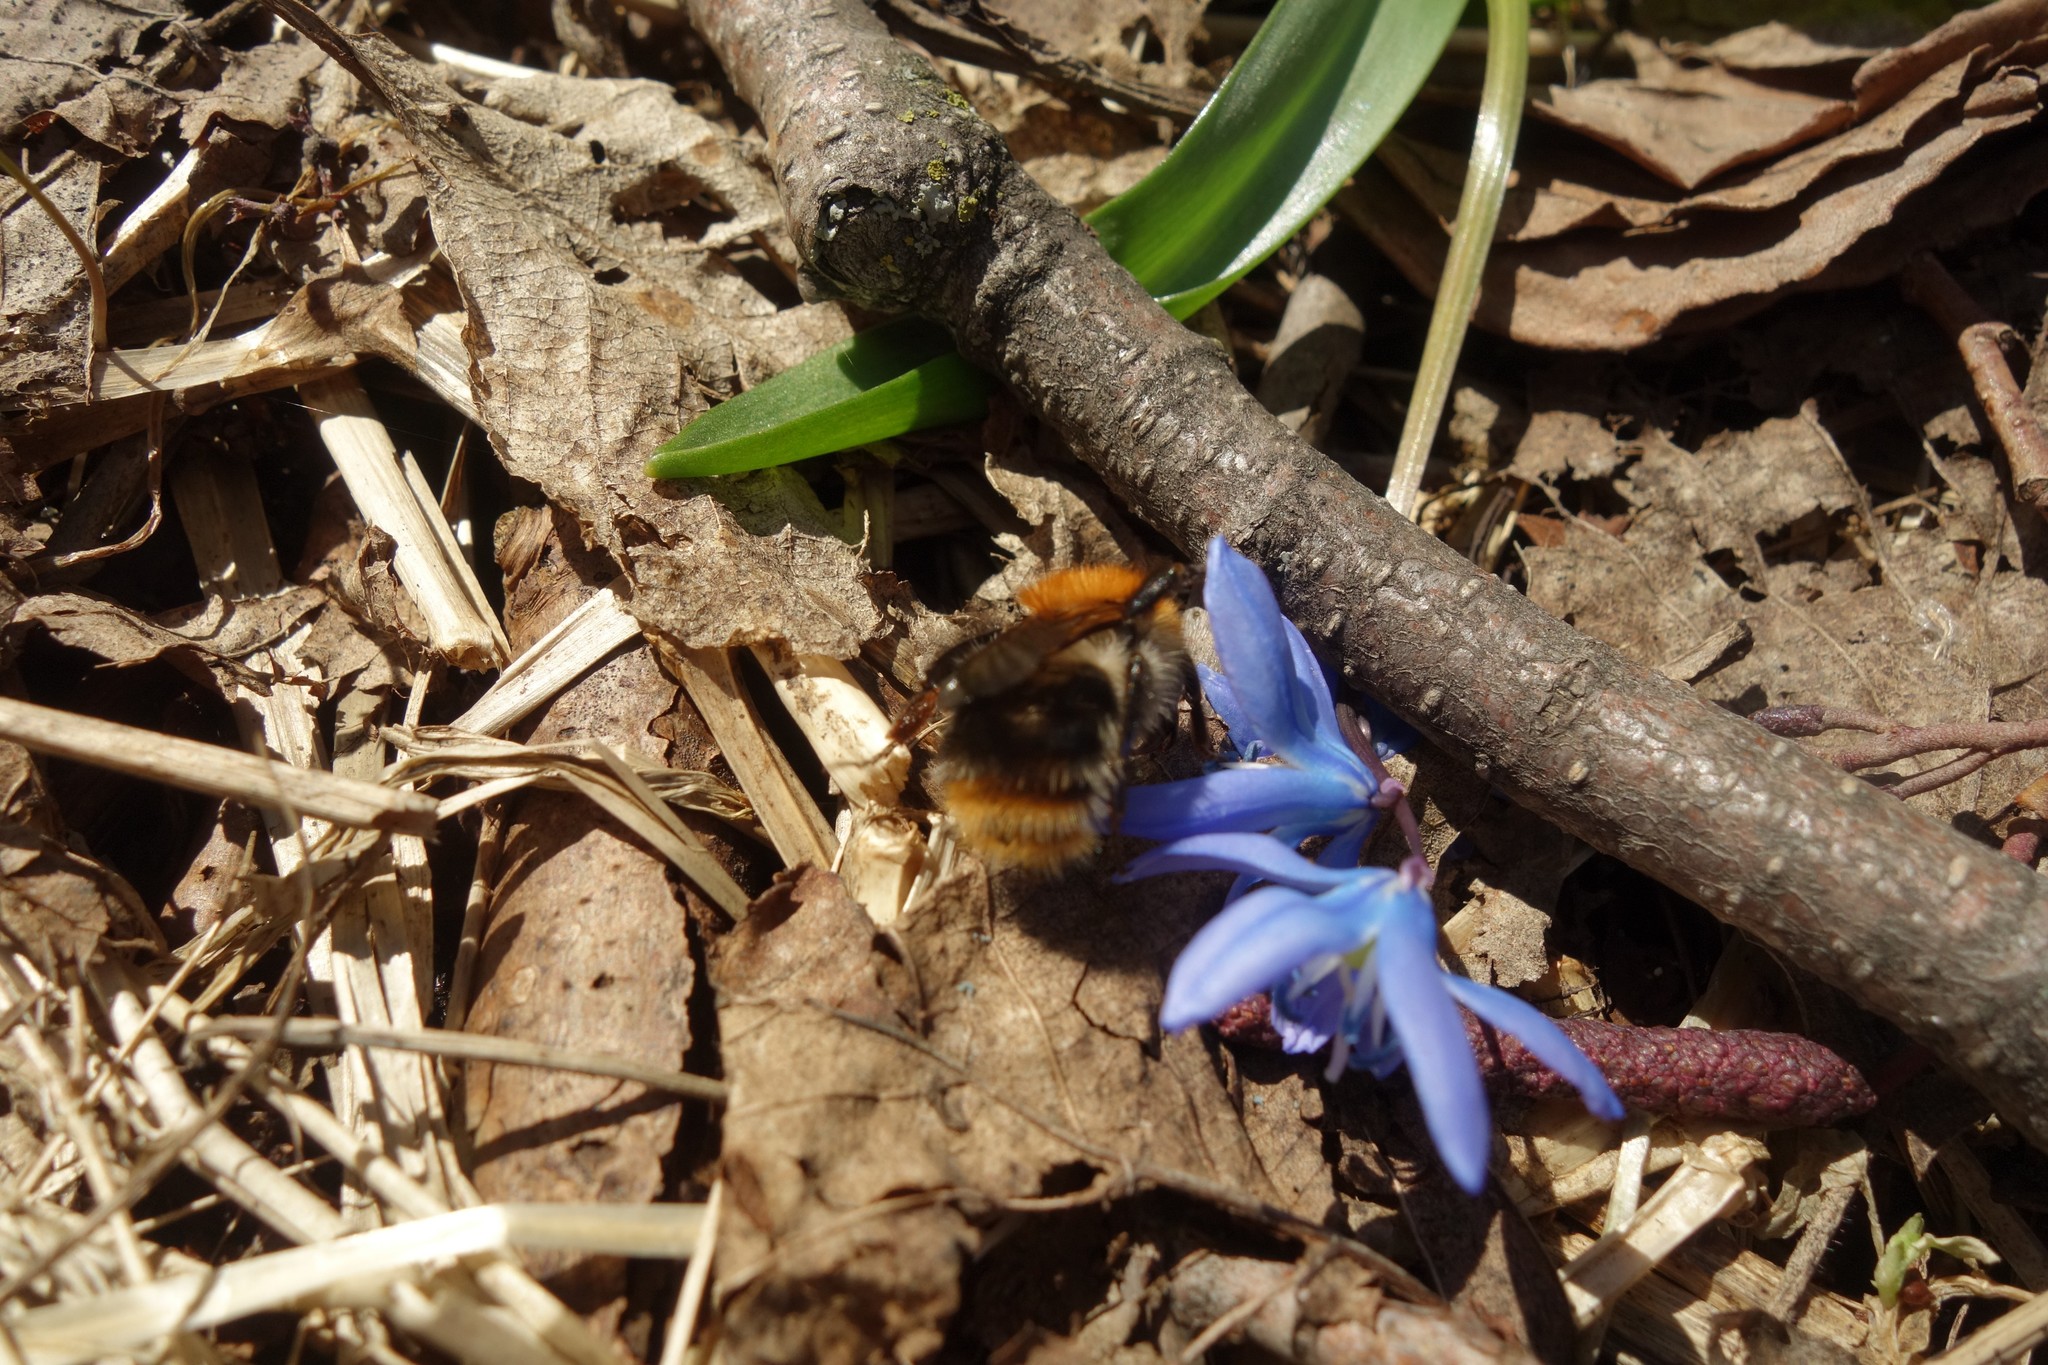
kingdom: Animalia
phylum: Arthropoda
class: Insecta
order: Hymenoptera
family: Apidae
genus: Bombus
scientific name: Bombus pascuorum
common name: Common carder bee
